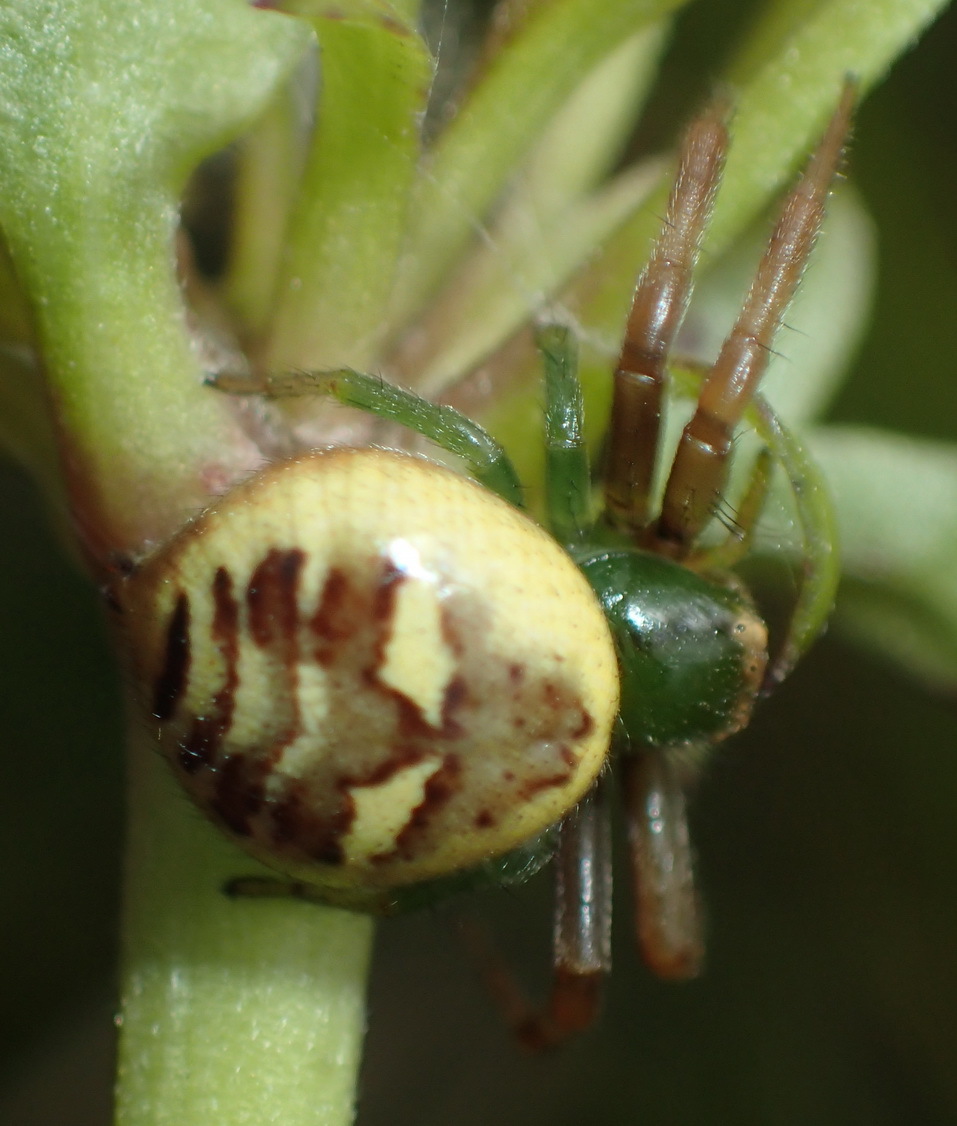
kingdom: Animalia
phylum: Arthropoda
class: Arachnida
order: Araneae
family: Thomisidae
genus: Synema
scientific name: Synema imitatrix
